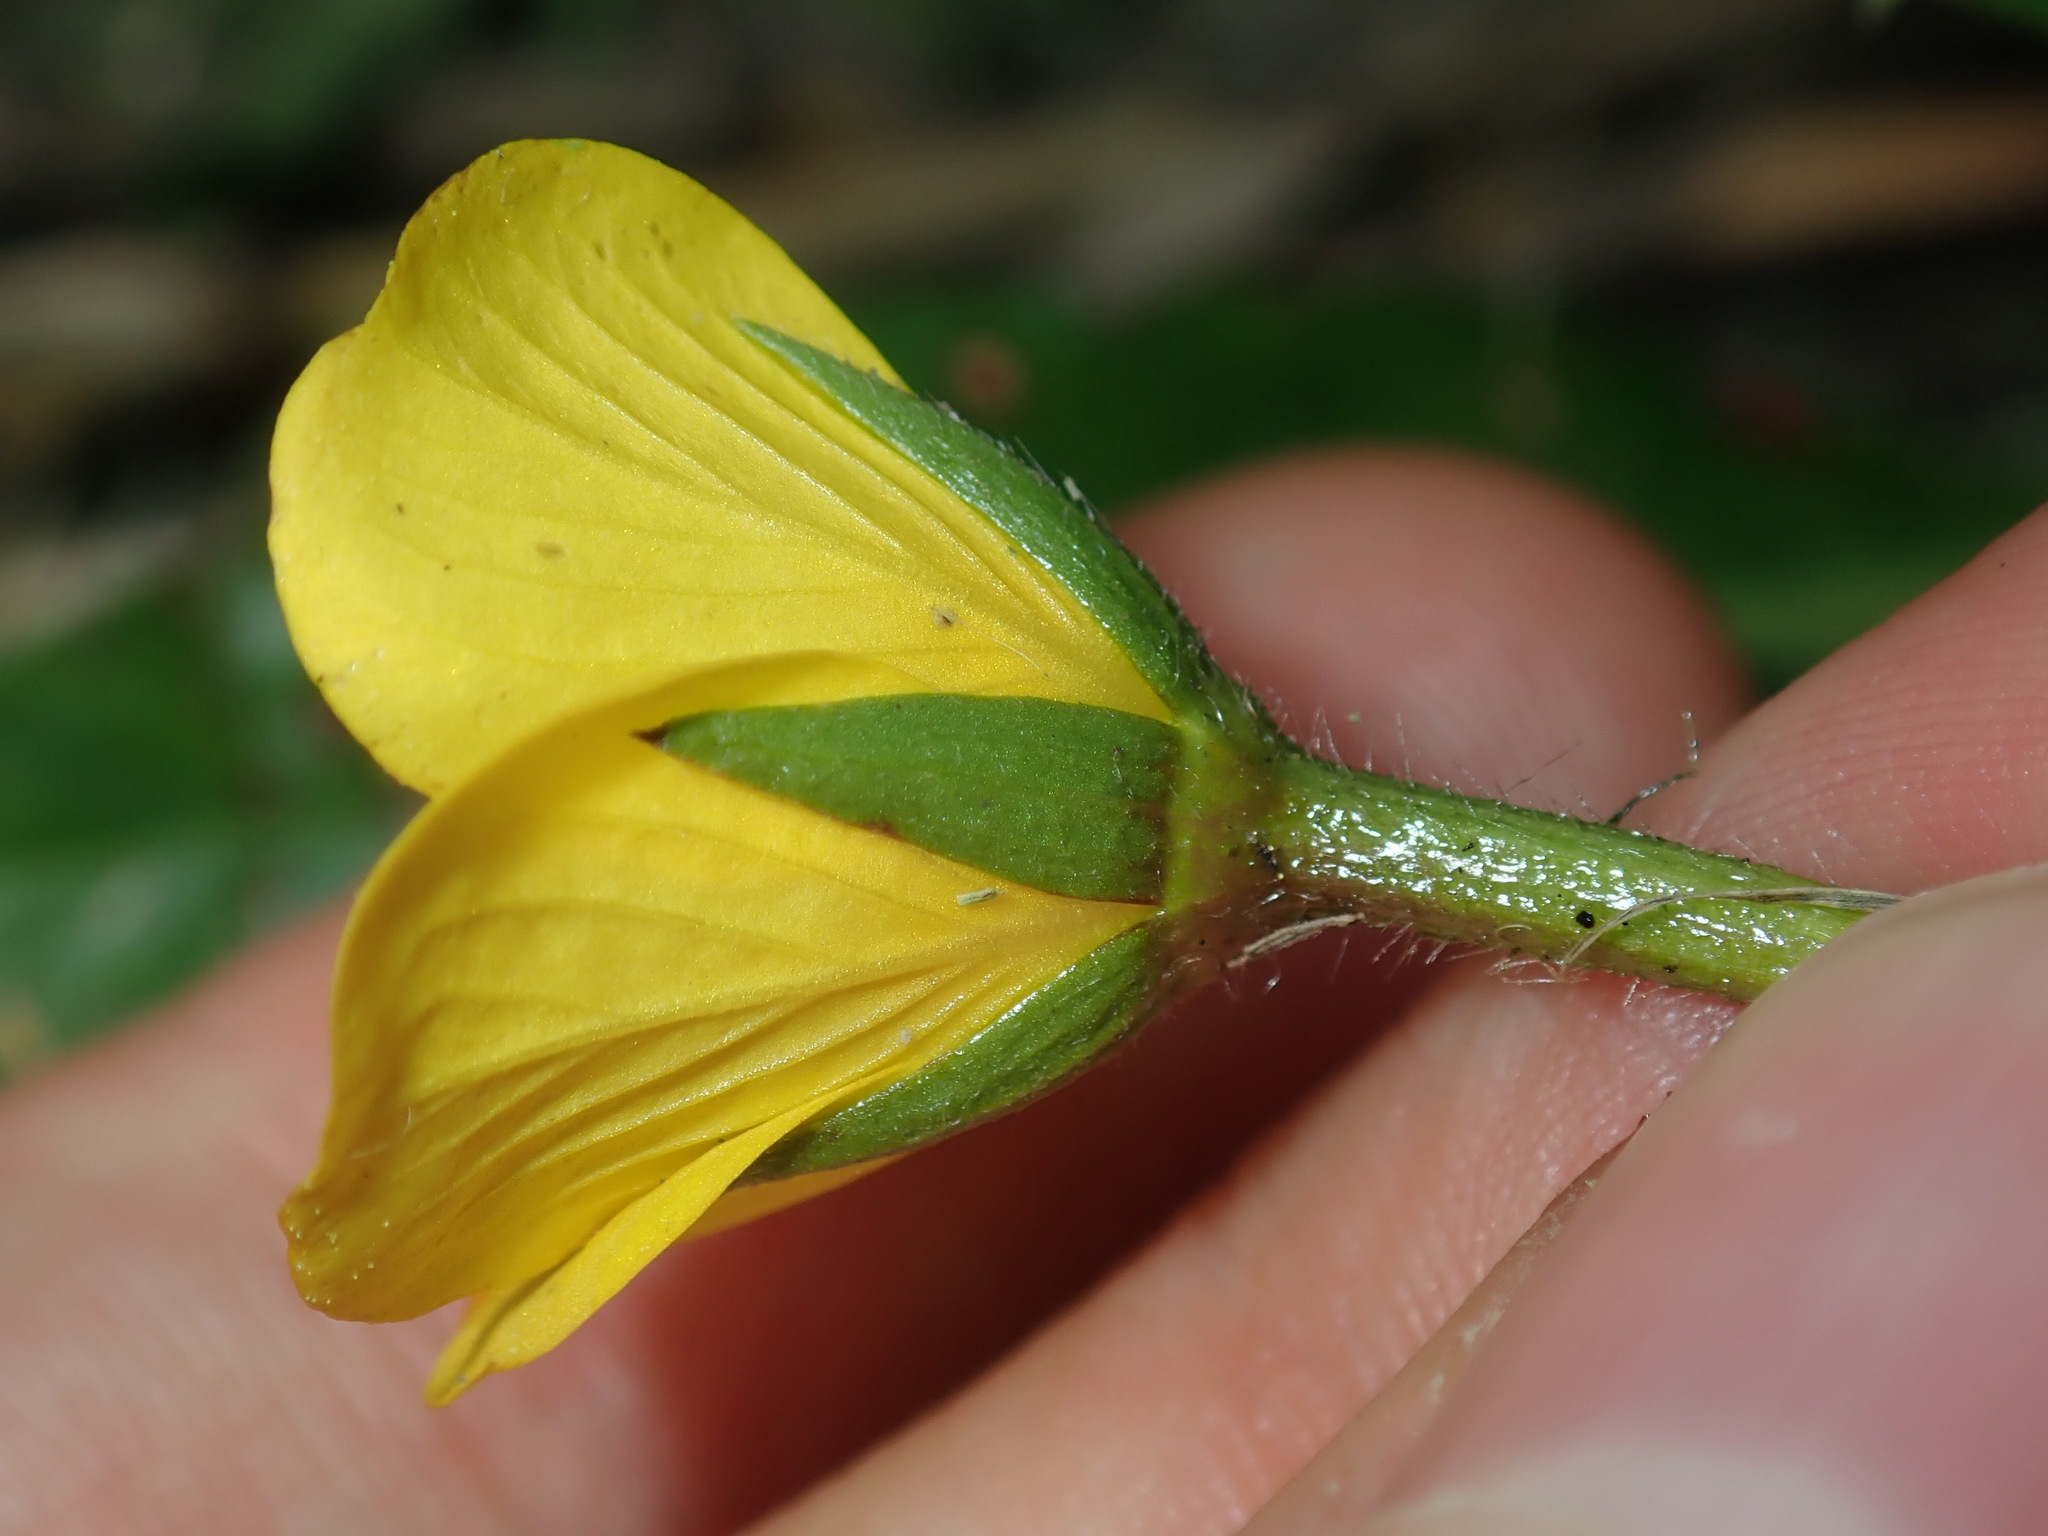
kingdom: Plantae
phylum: Tracheophyta
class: Magnoliopsida
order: Myrtales
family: Onagraceae
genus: Ludwigia
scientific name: Ludwigia peploides
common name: Floating primrose-willow
